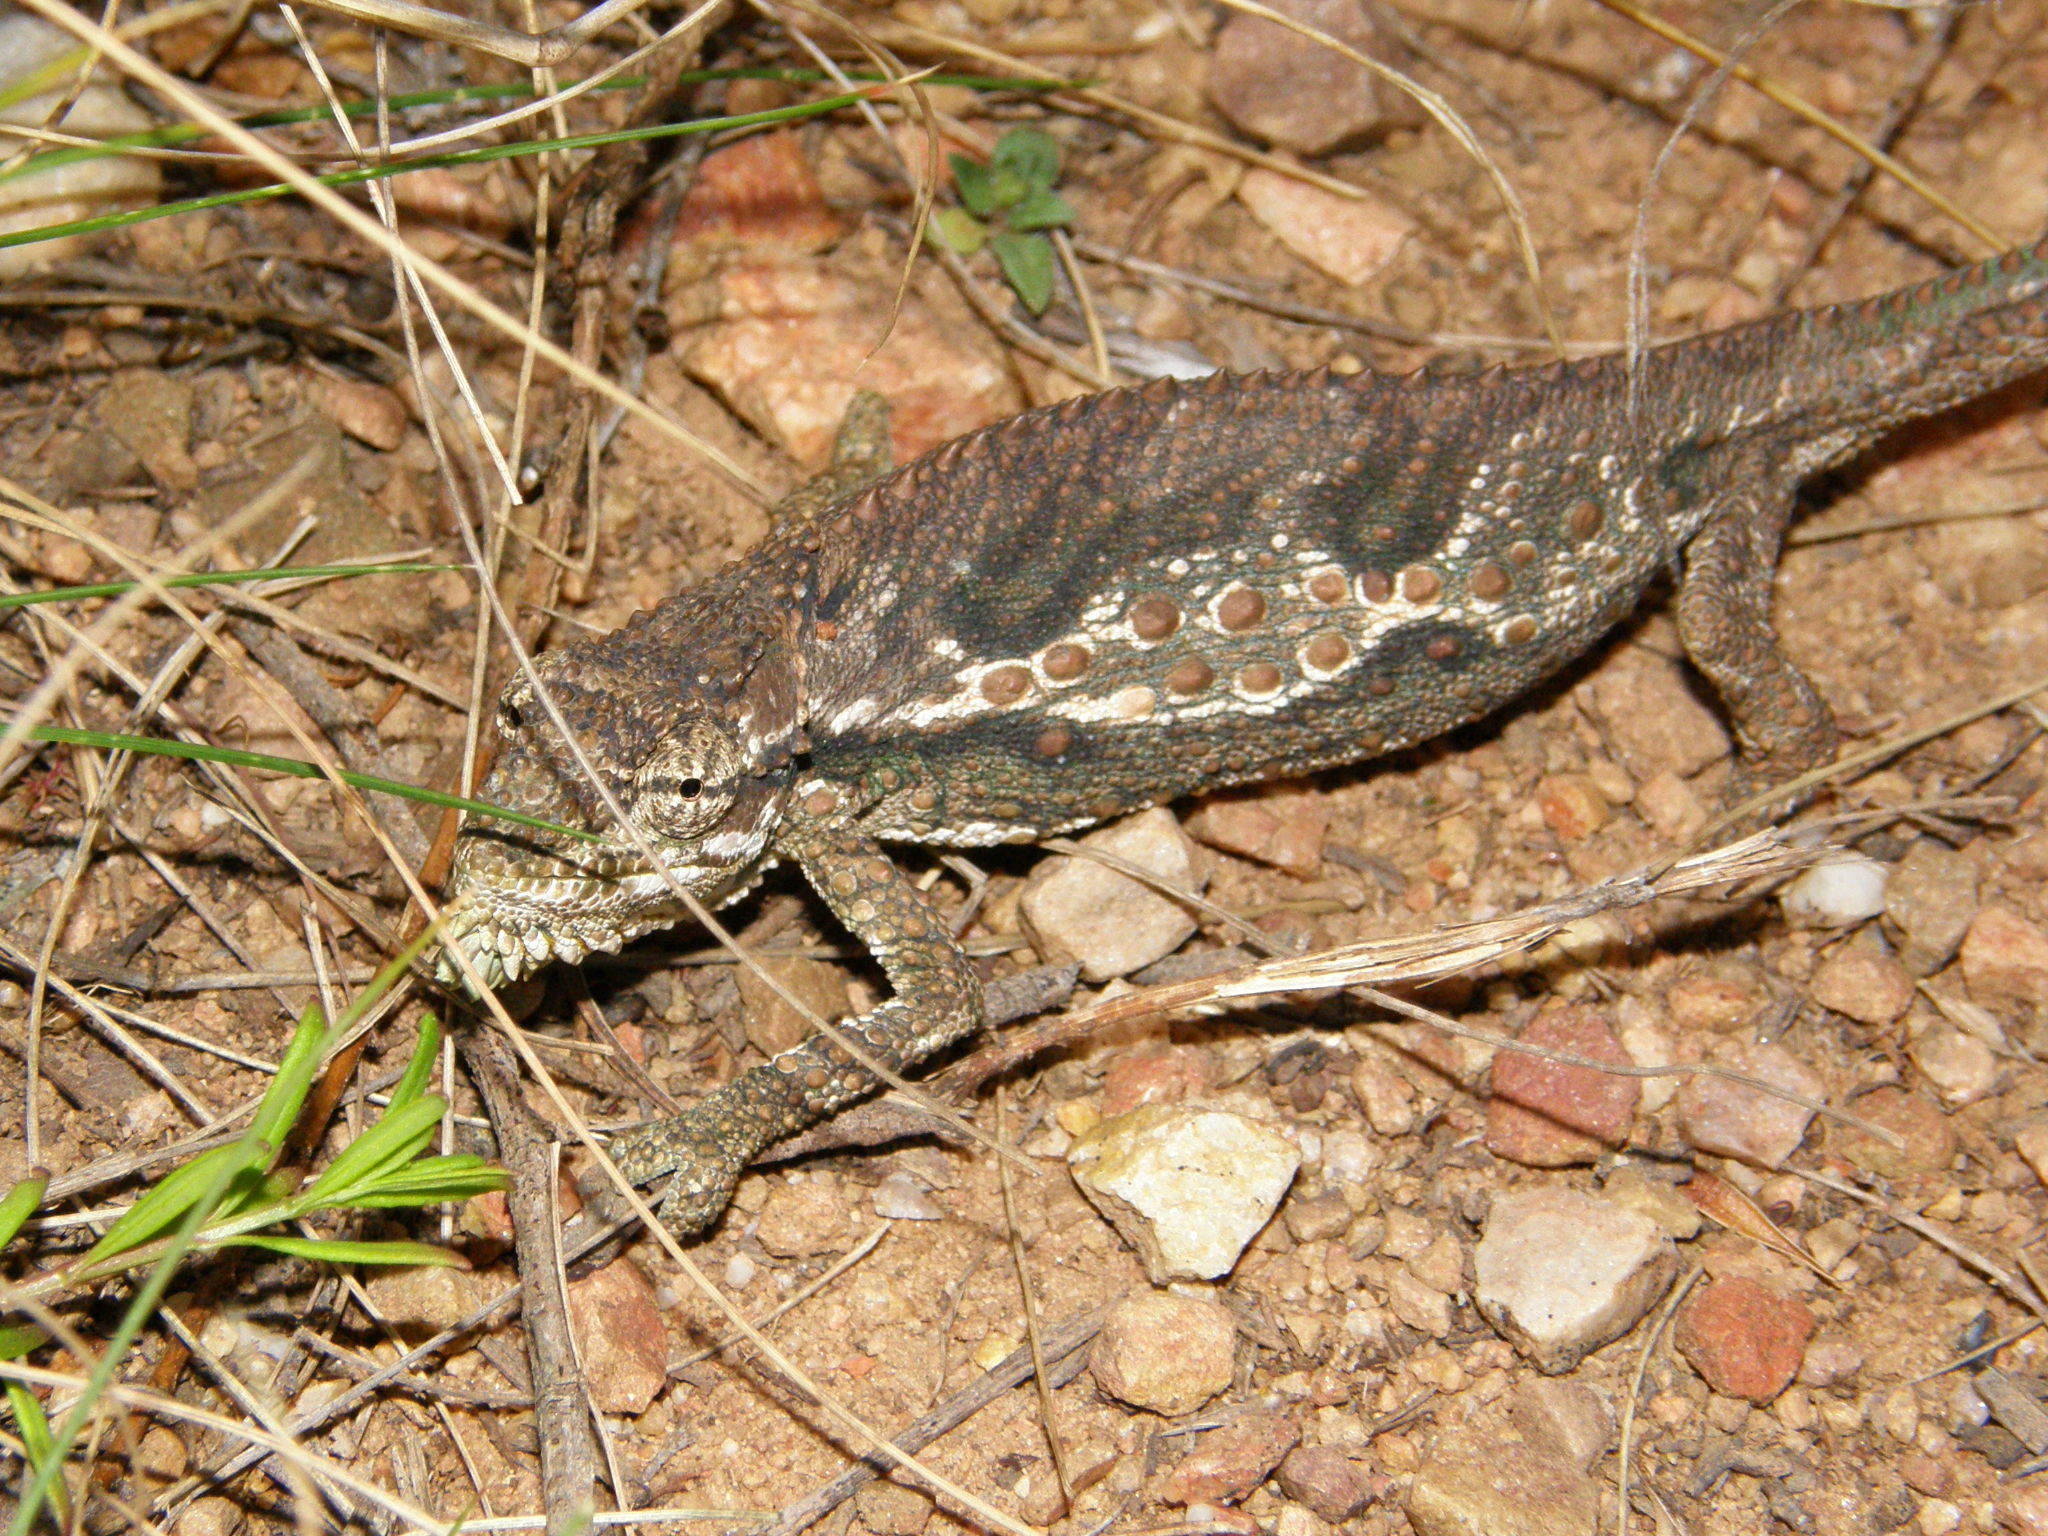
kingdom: Animalia
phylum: Chordata
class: Squamata
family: Chamaeleonidae
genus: Bradypodion
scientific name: Bradypodion gutturale
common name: Little karoo dwarf chameleon
